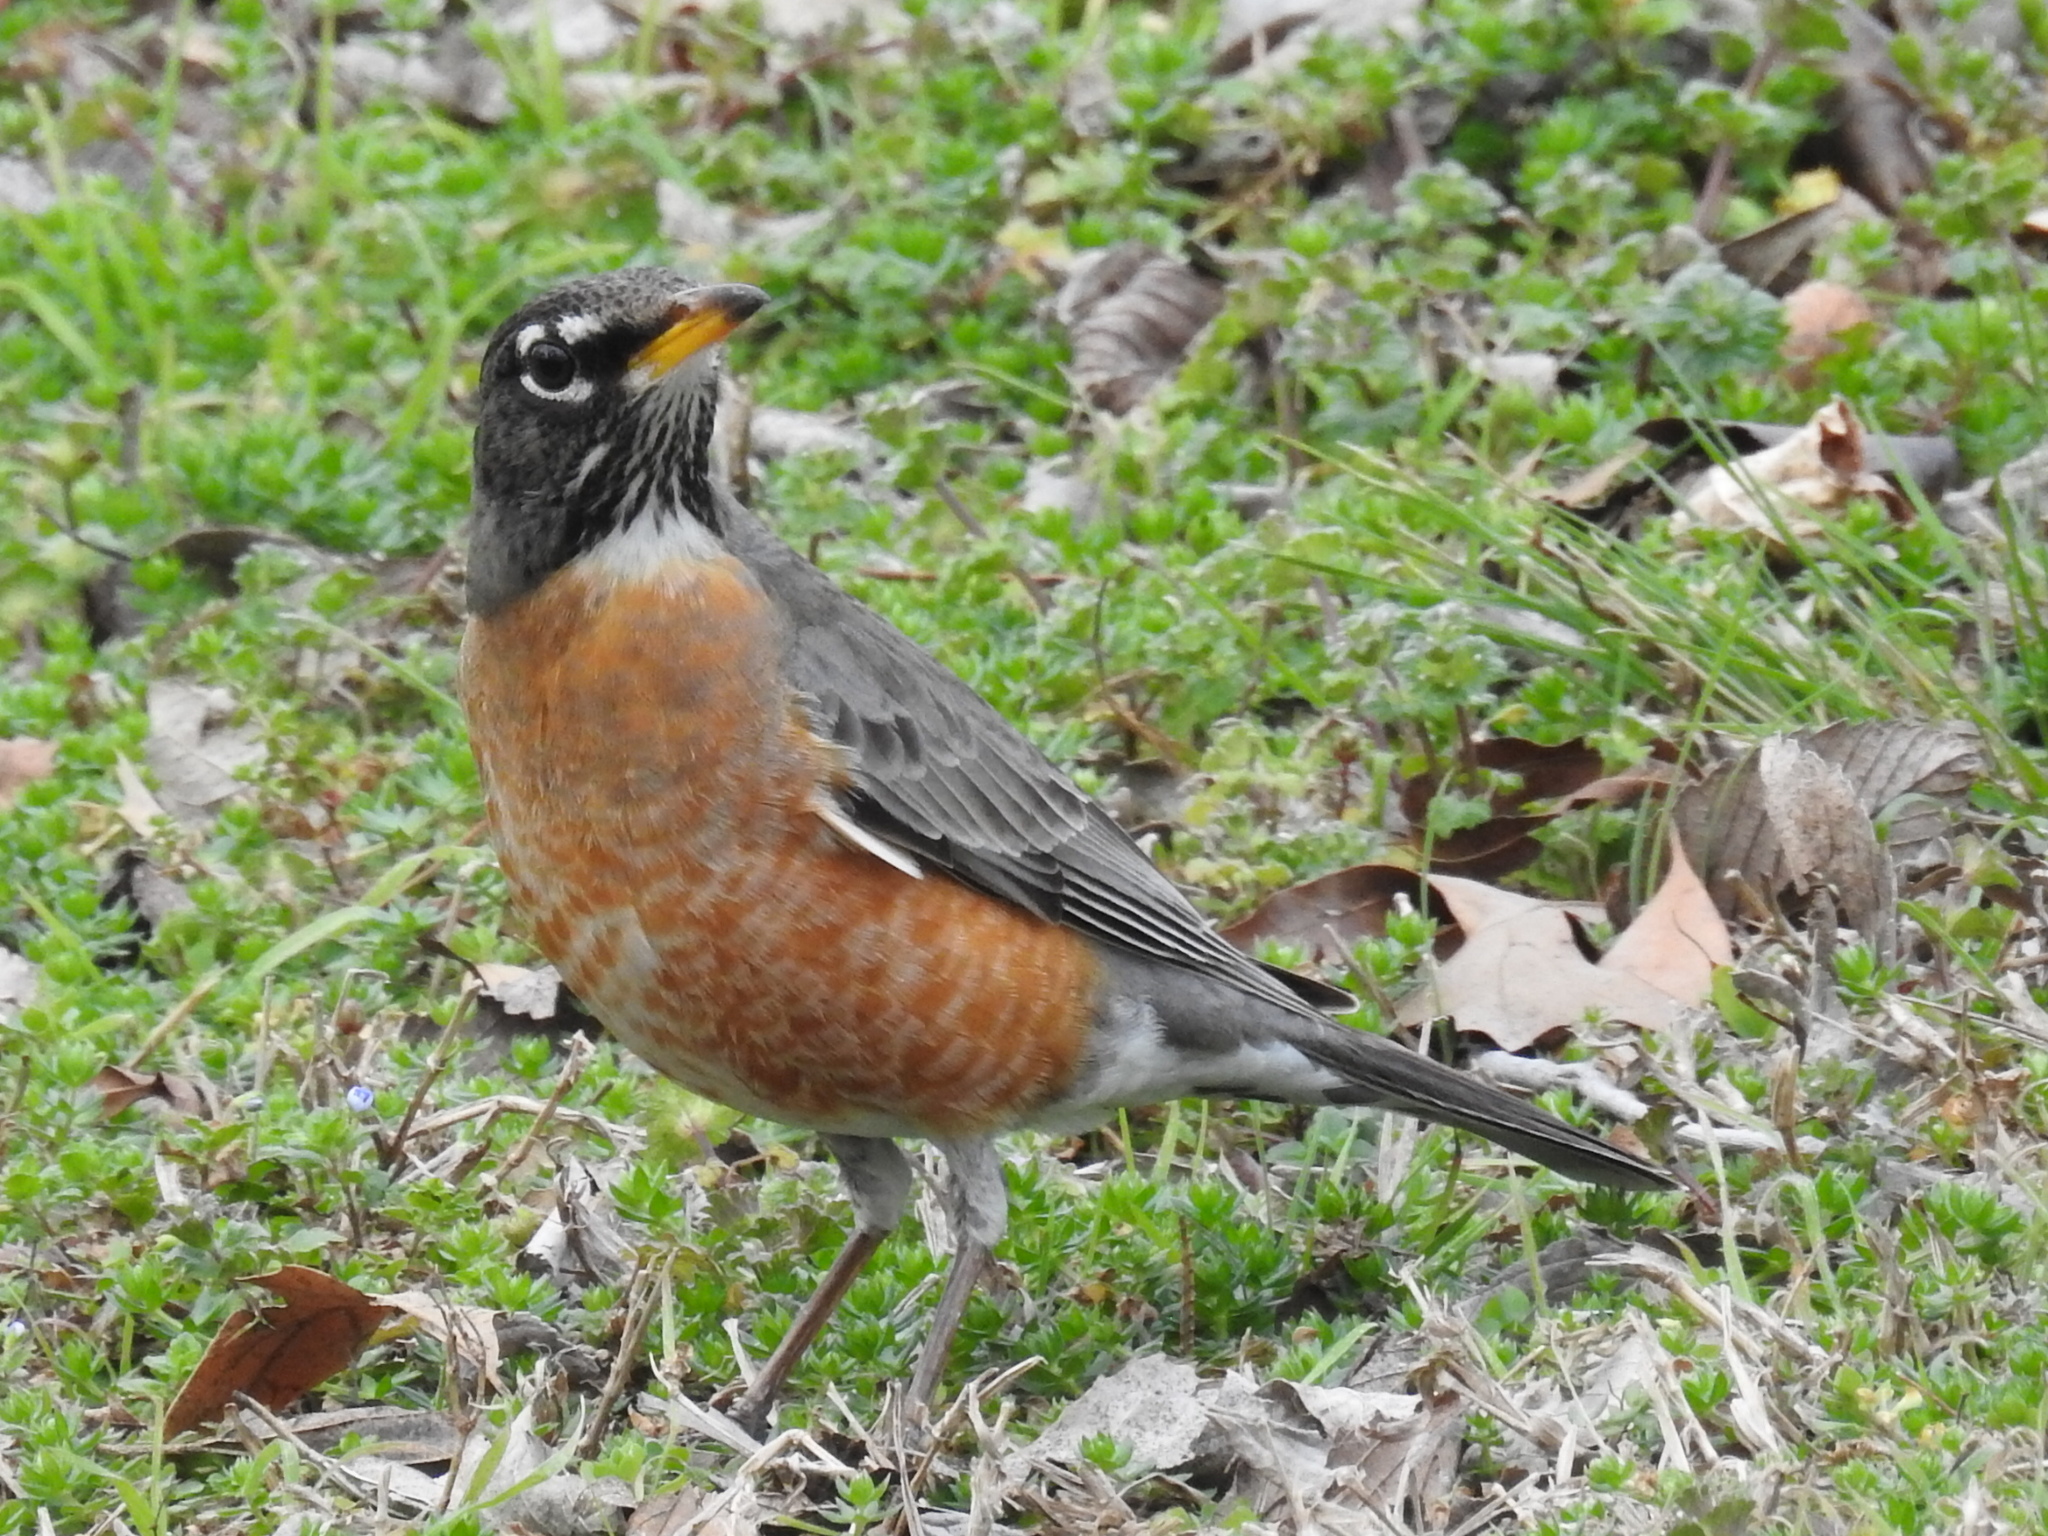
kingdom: Animalia
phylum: Chordata
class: Aves
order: Passeriformes
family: Turdidae
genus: Turdus
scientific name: Turdus migratorius
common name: American robin
